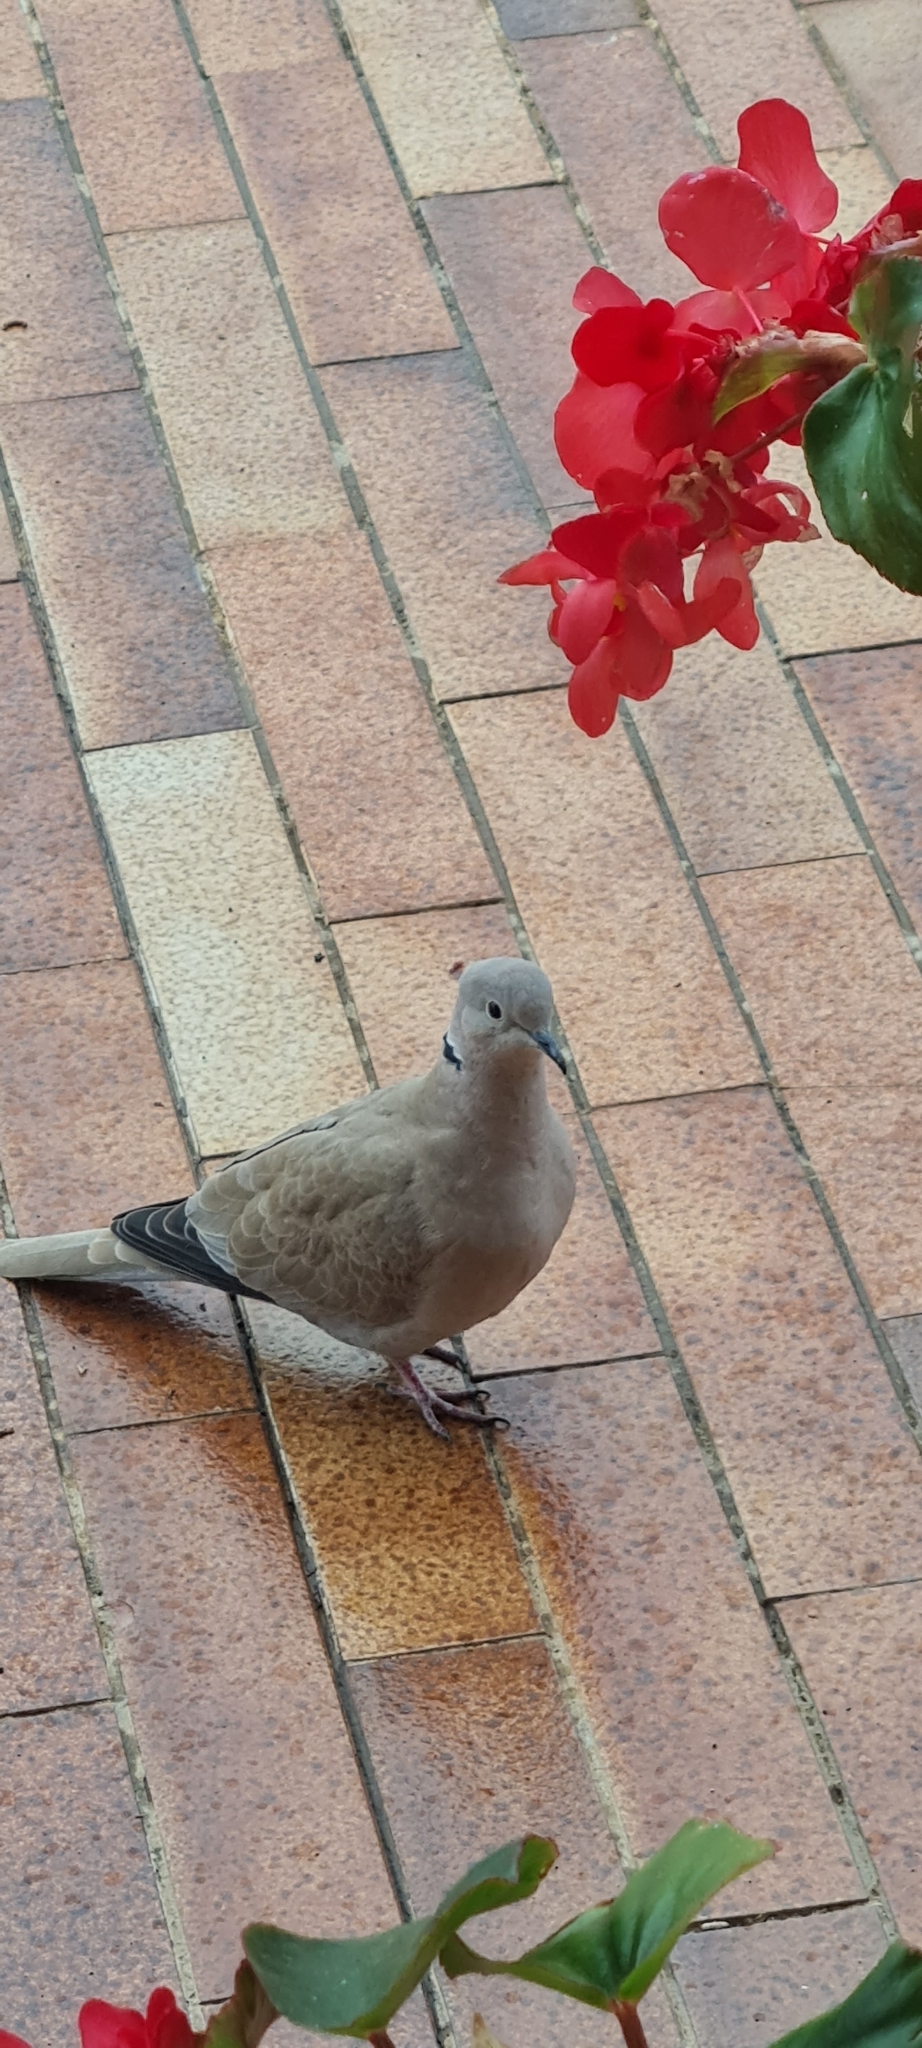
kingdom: Animalia
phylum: Chordata
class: Aves
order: Columbiformes
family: Columbidae
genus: Streptopelia
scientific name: Streptopelia decaocto
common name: Eurasian collared dove
